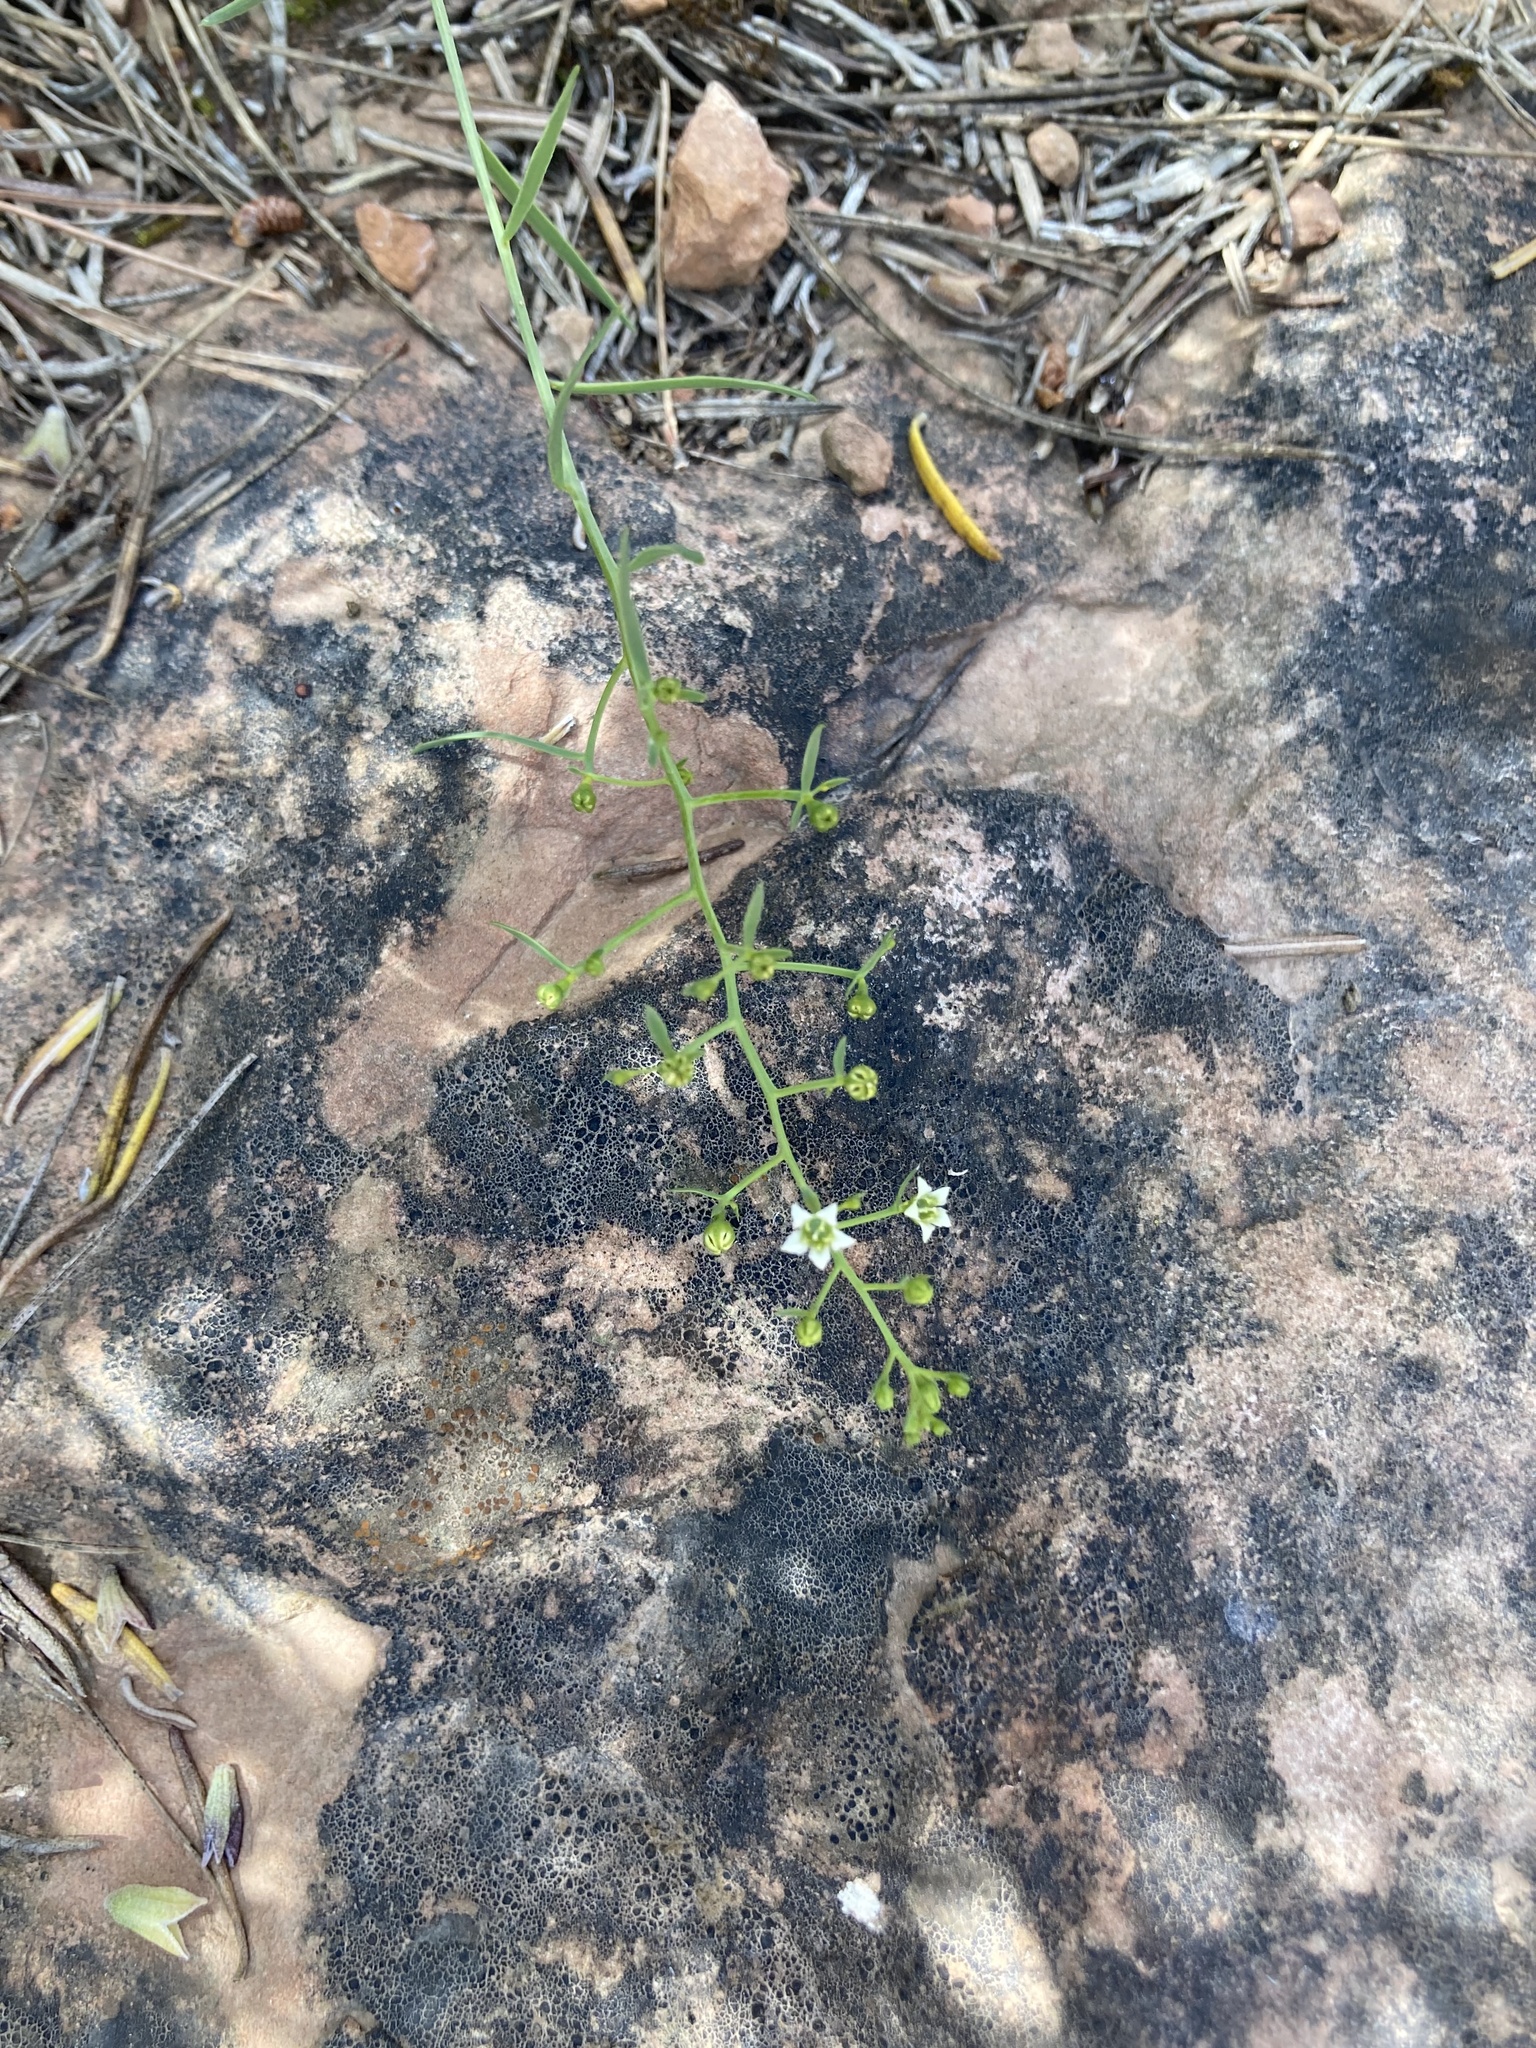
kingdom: Plantae
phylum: Tracheophyta
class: Magnoliopsida
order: Santalales
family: Thesiaceae
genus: Thesium
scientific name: Thesium divaricatum
